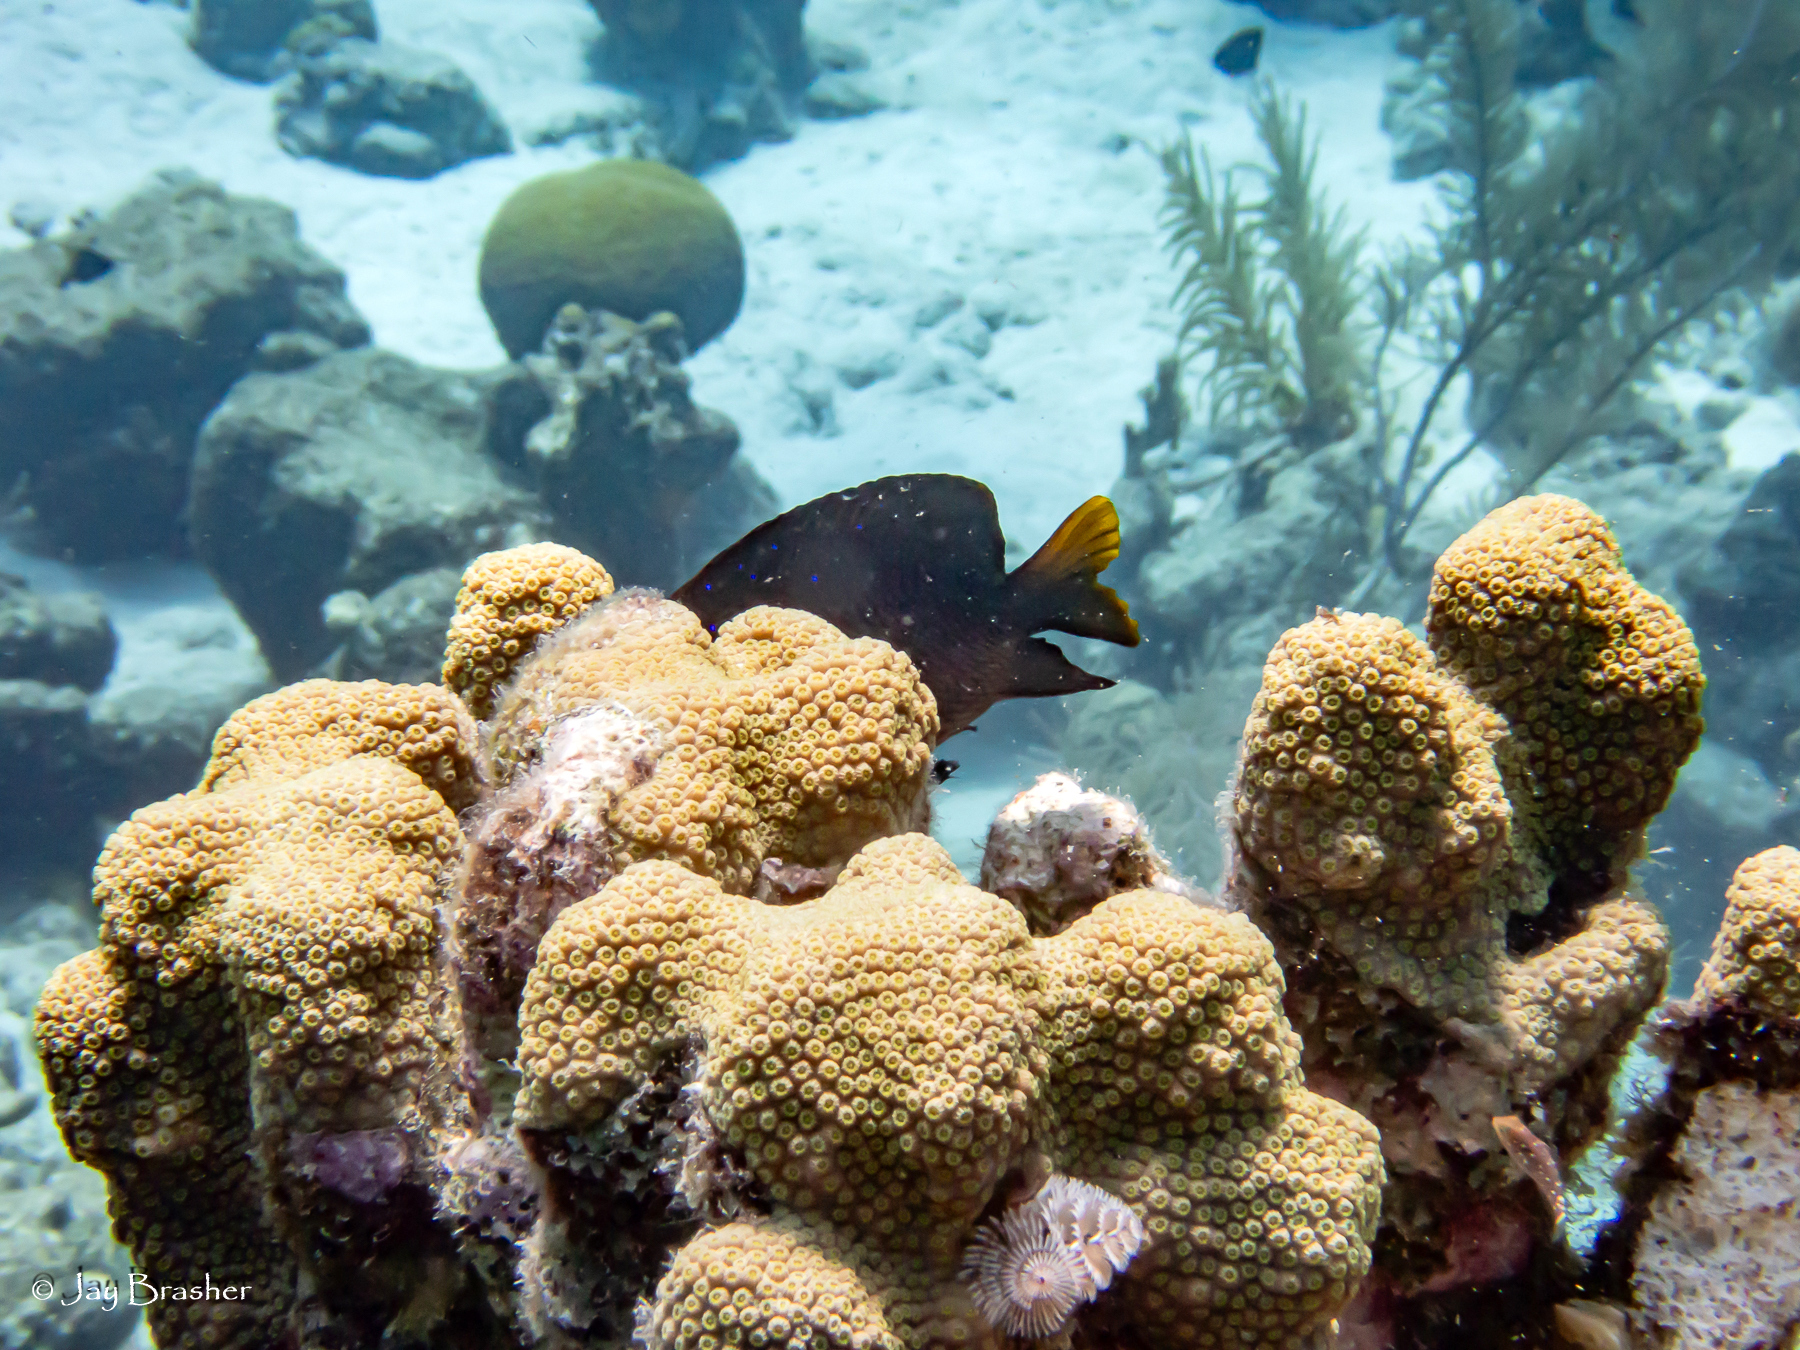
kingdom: Animalia
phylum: Annelida
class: Polychaeta
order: Sabellida
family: Serpulidae
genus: Spirobranchus
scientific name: Spirobranchus giganteus
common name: Christmas tree worm
